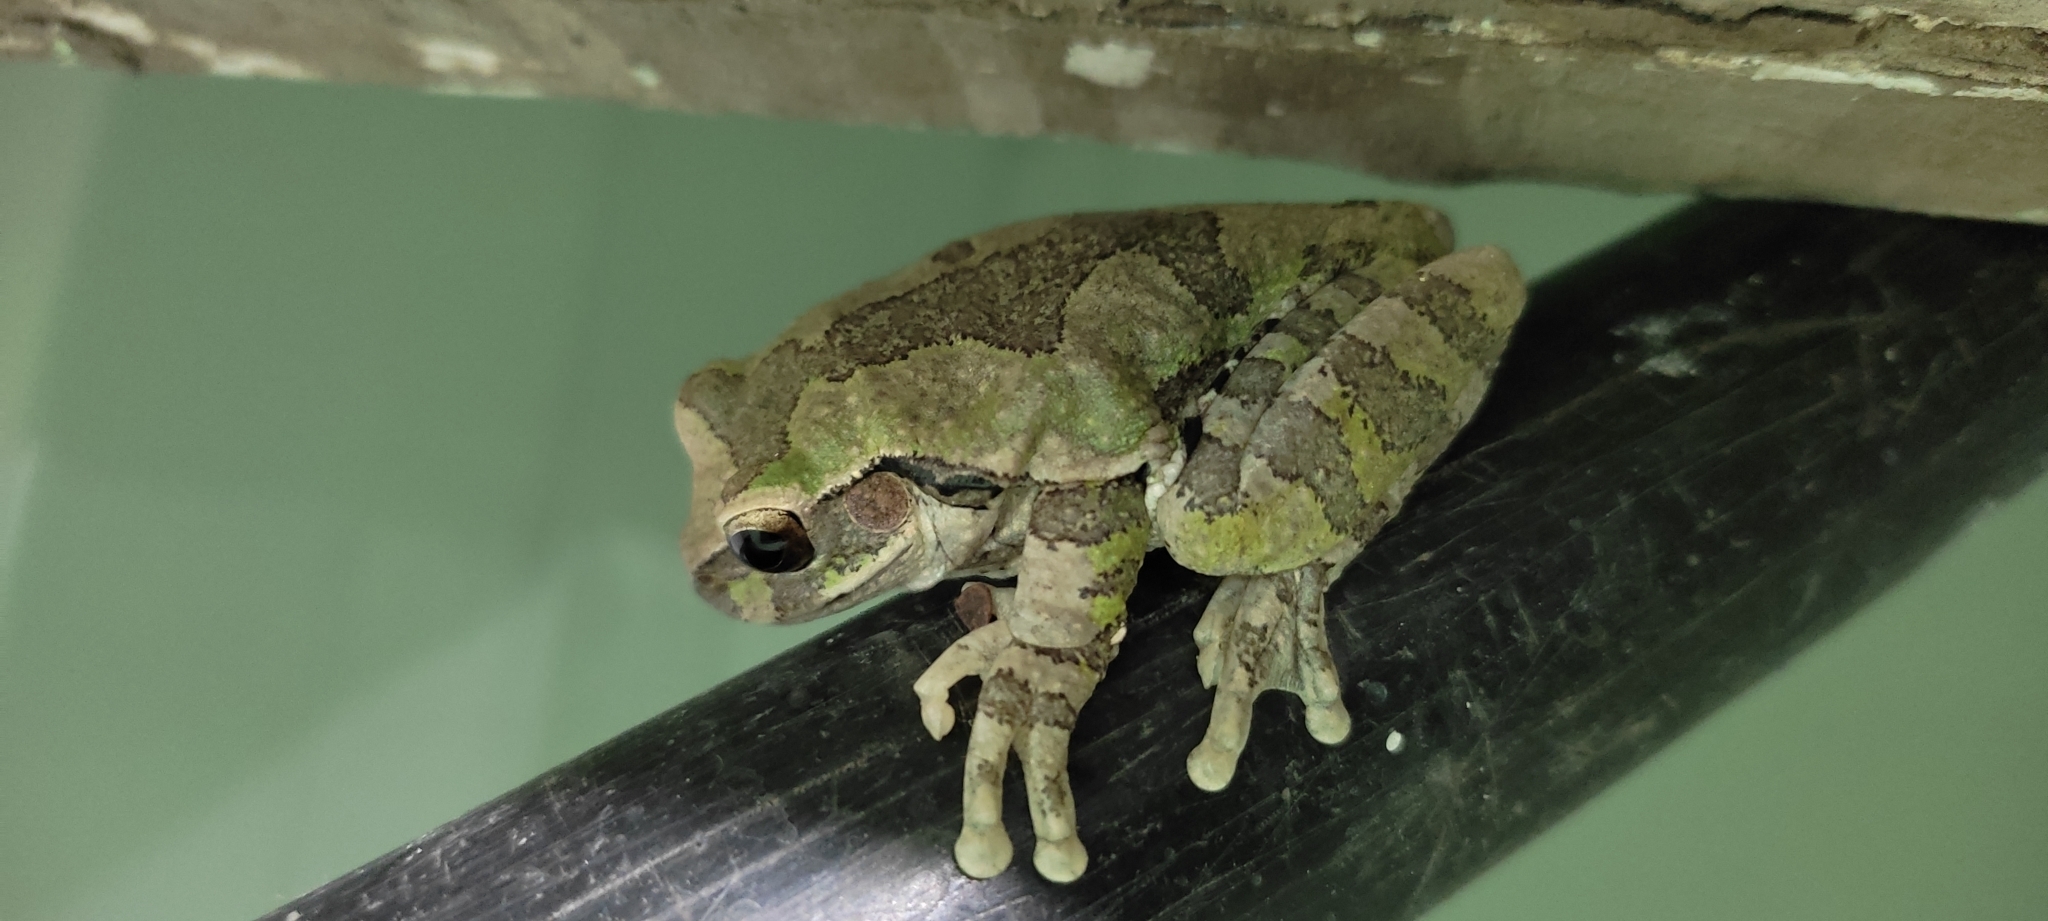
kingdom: Animalia
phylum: Chordata
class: Amphibia
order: Anura
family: Hylidae
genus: Smilisca
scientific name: Smilisca baudinii
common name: Mexican smilisca
